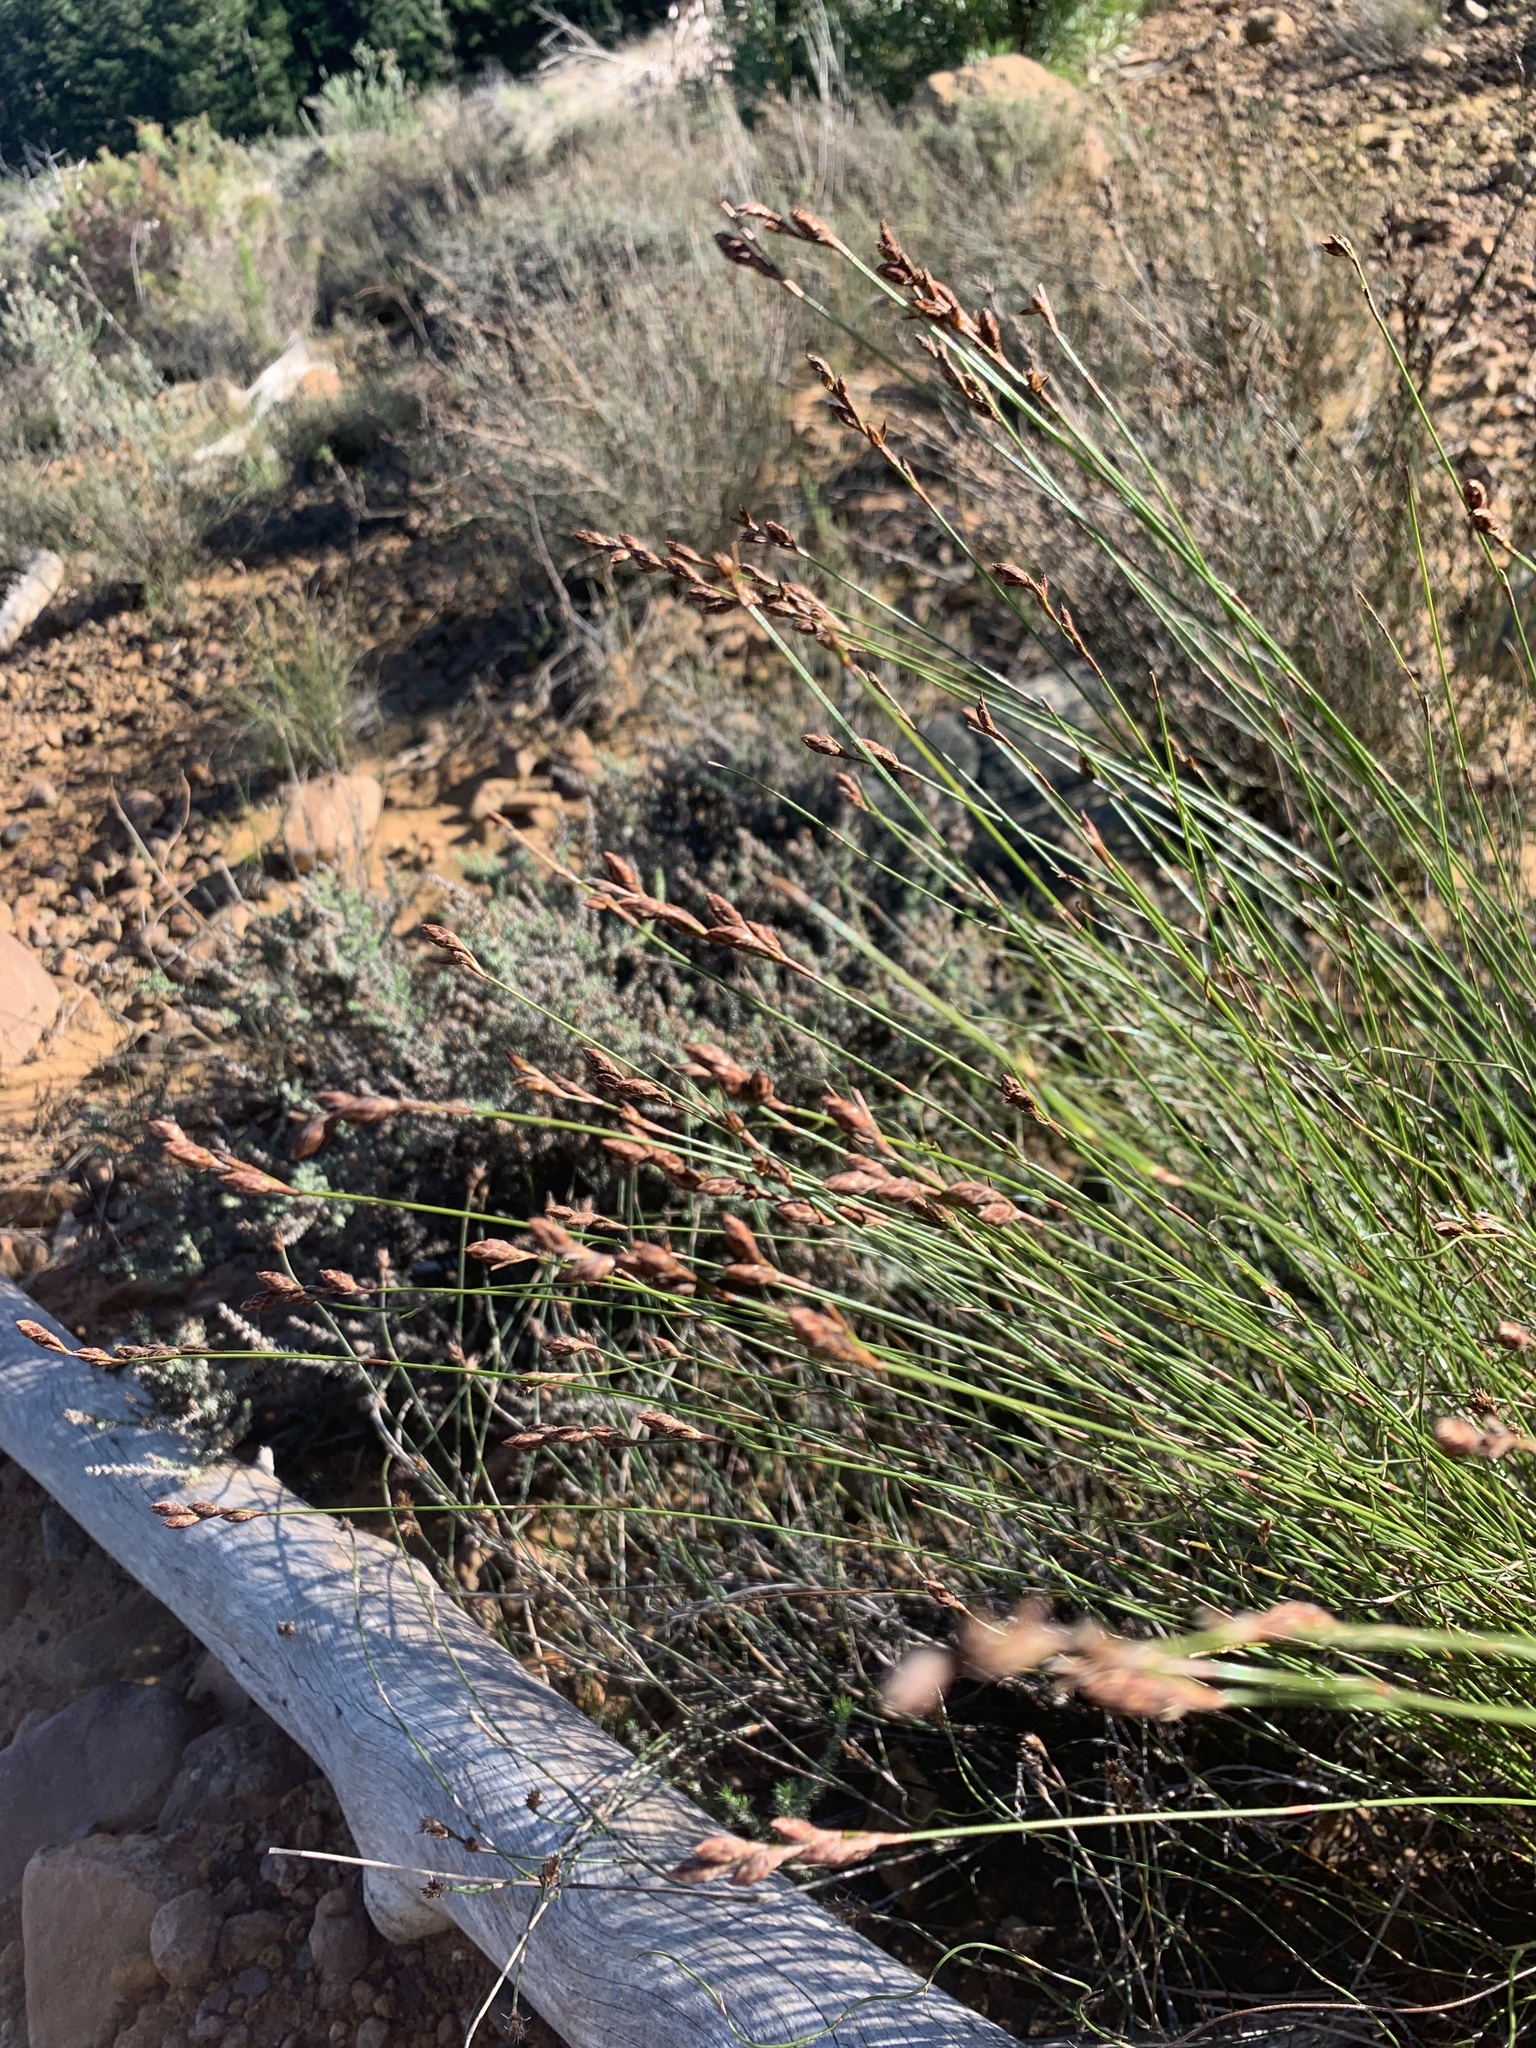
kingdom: Plantae
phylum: Tracheophyta
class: Liliopsida
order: Poales
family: Restionaceae
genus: Restio
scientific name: Restio filiformis
